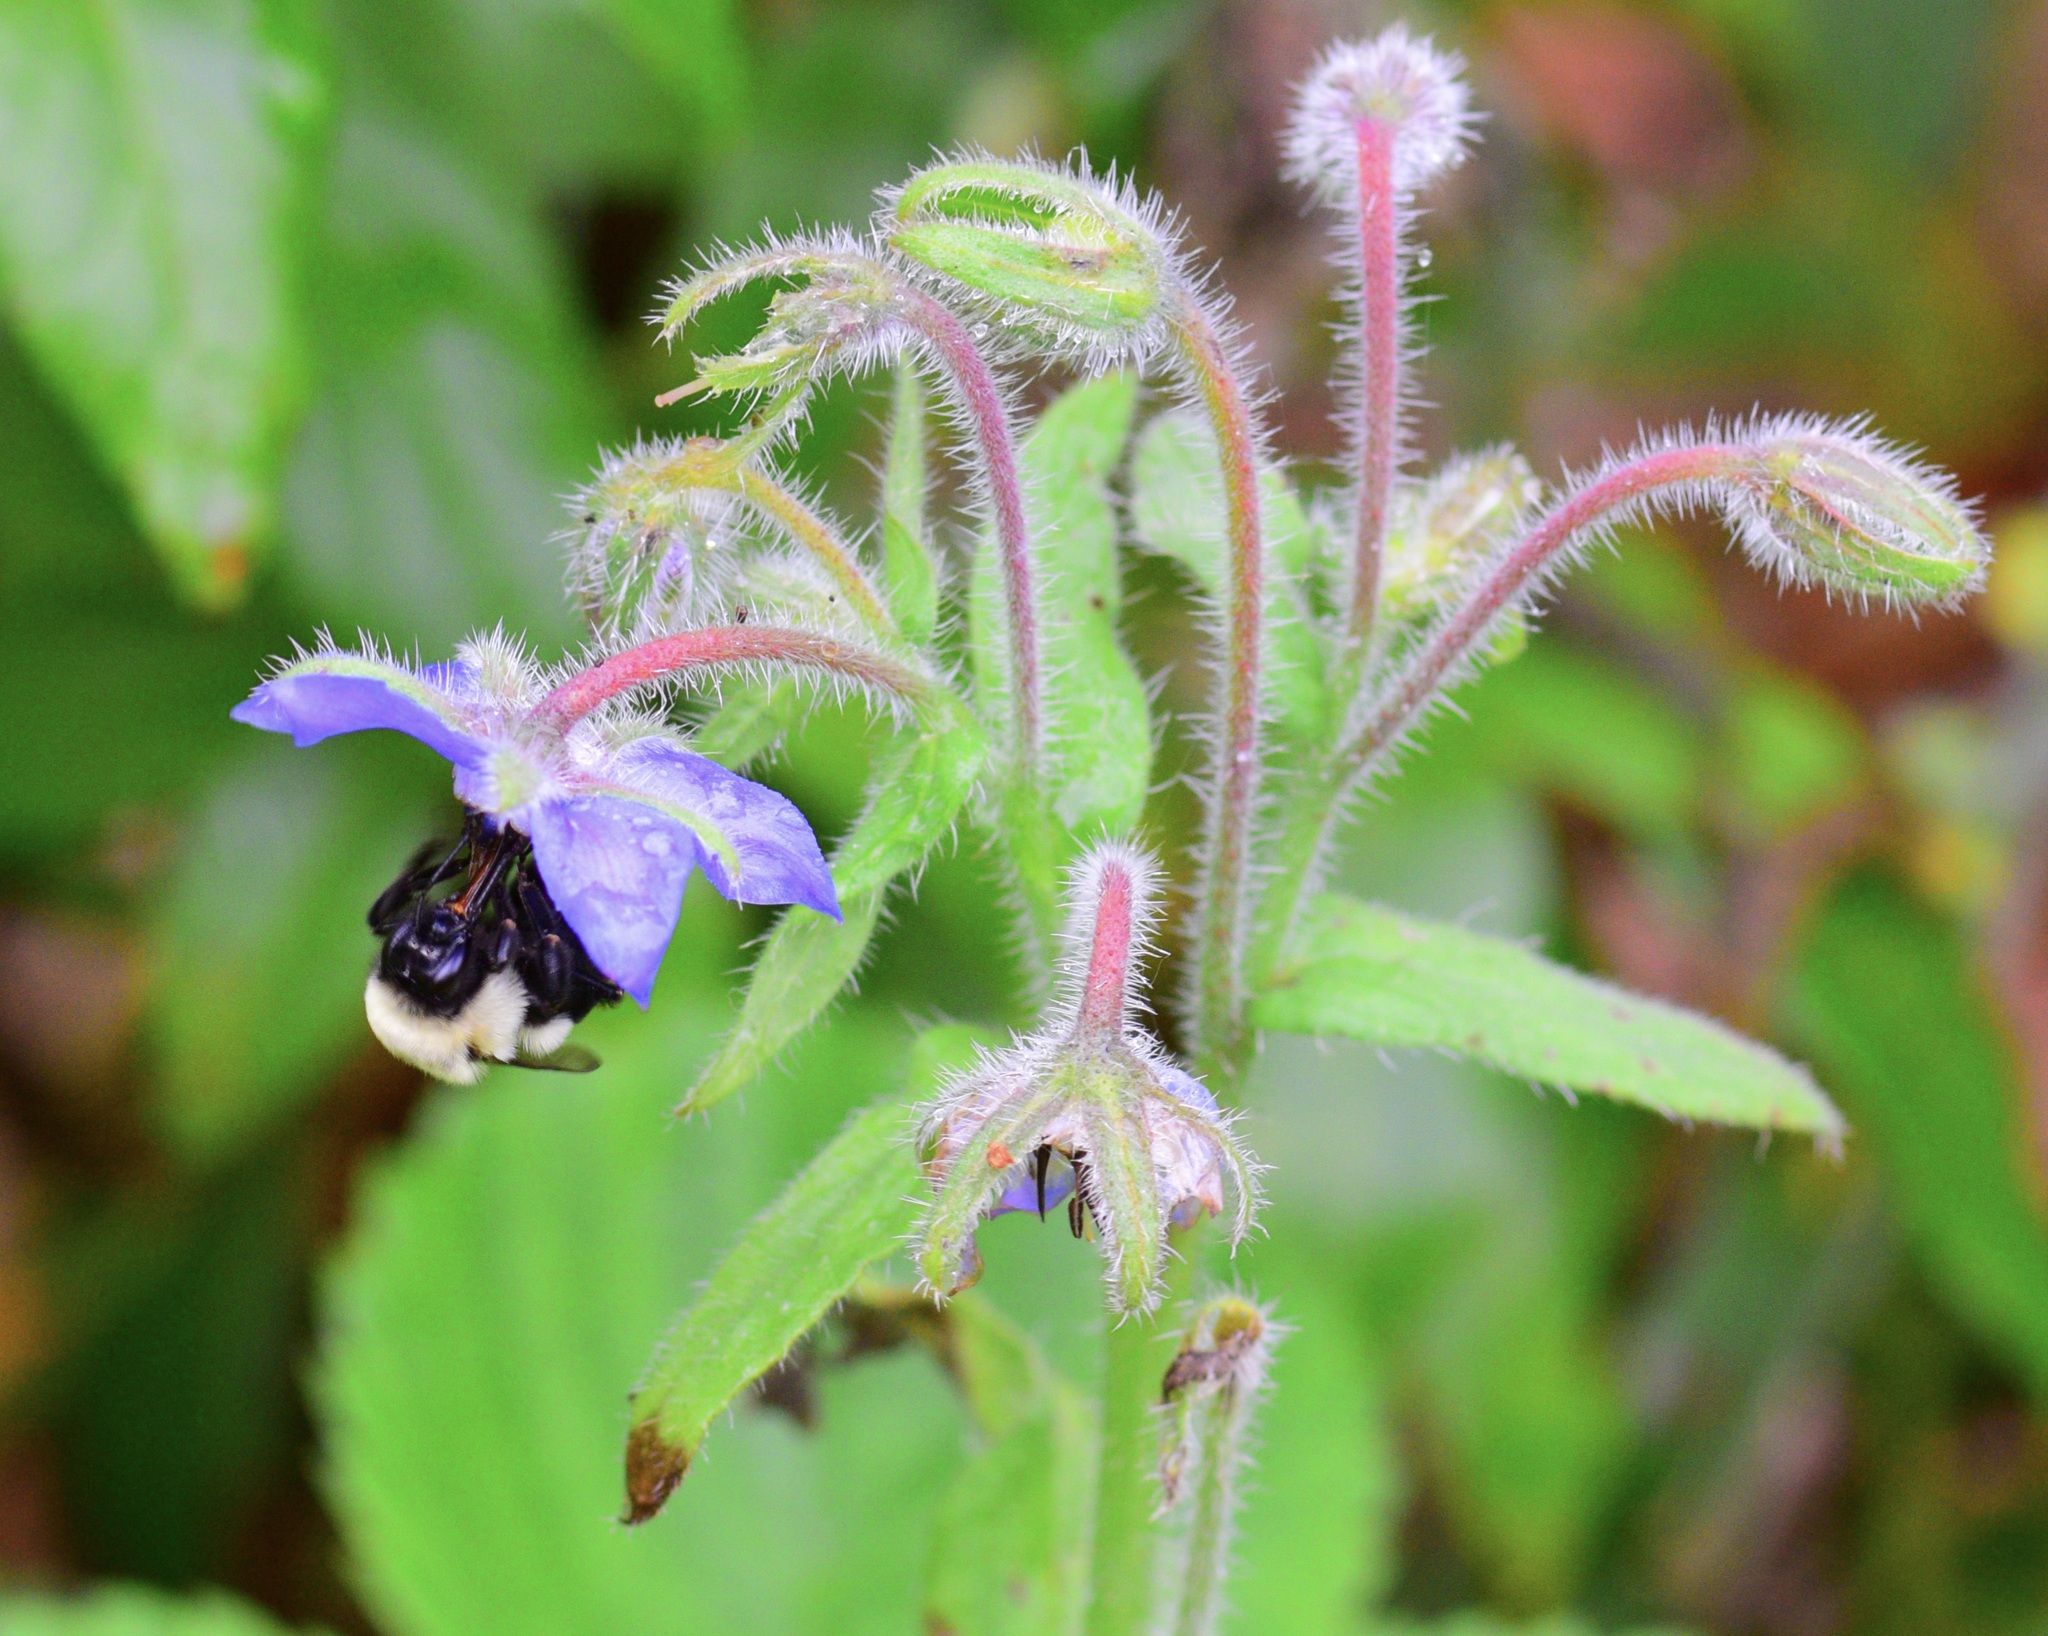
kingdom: Animalia
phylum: Arthropoda
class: Insecta
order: Hymenoptera
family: Apidae
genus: Bombus
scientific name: Bombus impatiens
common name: Common eastern bumble bee
